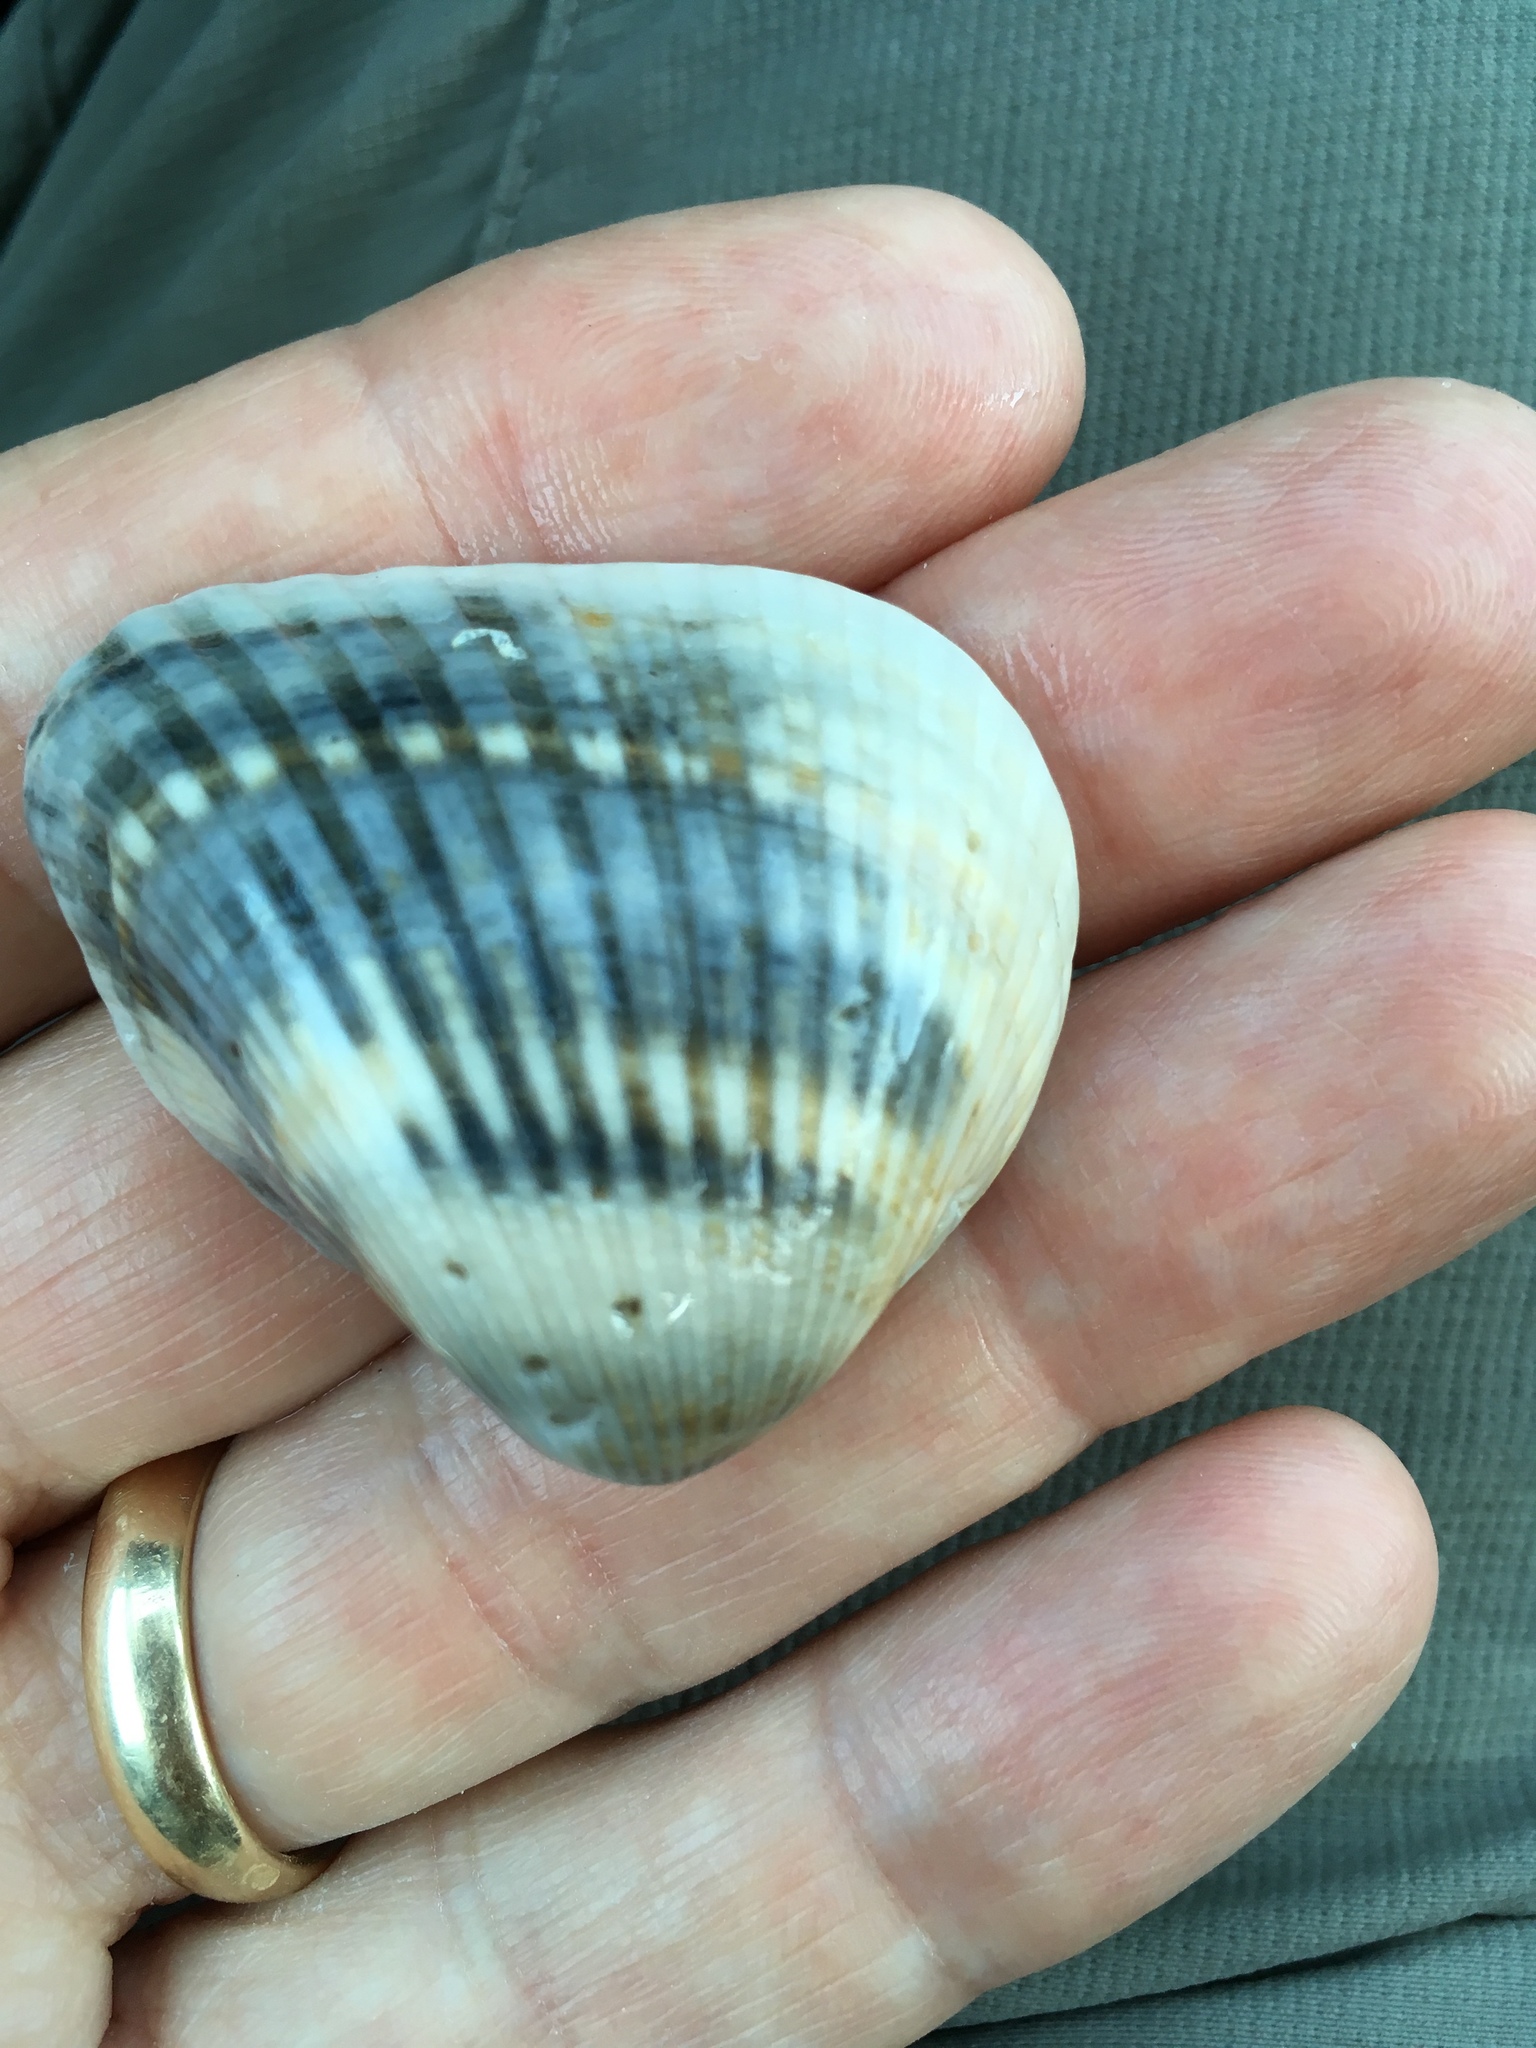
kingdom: Animalia
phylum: Mollusca
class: Bivalvia
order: Arcida
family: Noetiidae
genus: Noetia
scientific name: Noetia ponderosa
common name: Ponderous ark
